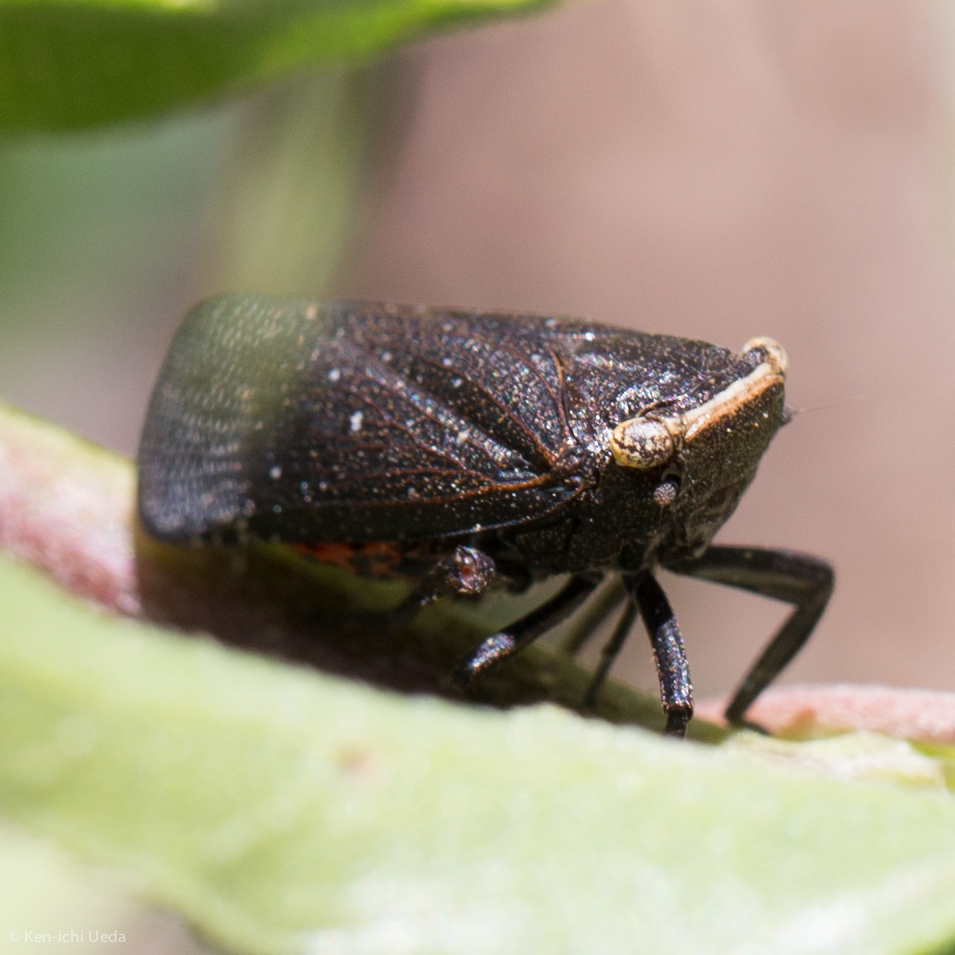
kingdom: Animalia
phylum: Arthropoda
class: Insecta
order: Hemiptera
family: Fulgoridae
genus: Crepusia
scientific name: Crepusia fuliginosa
